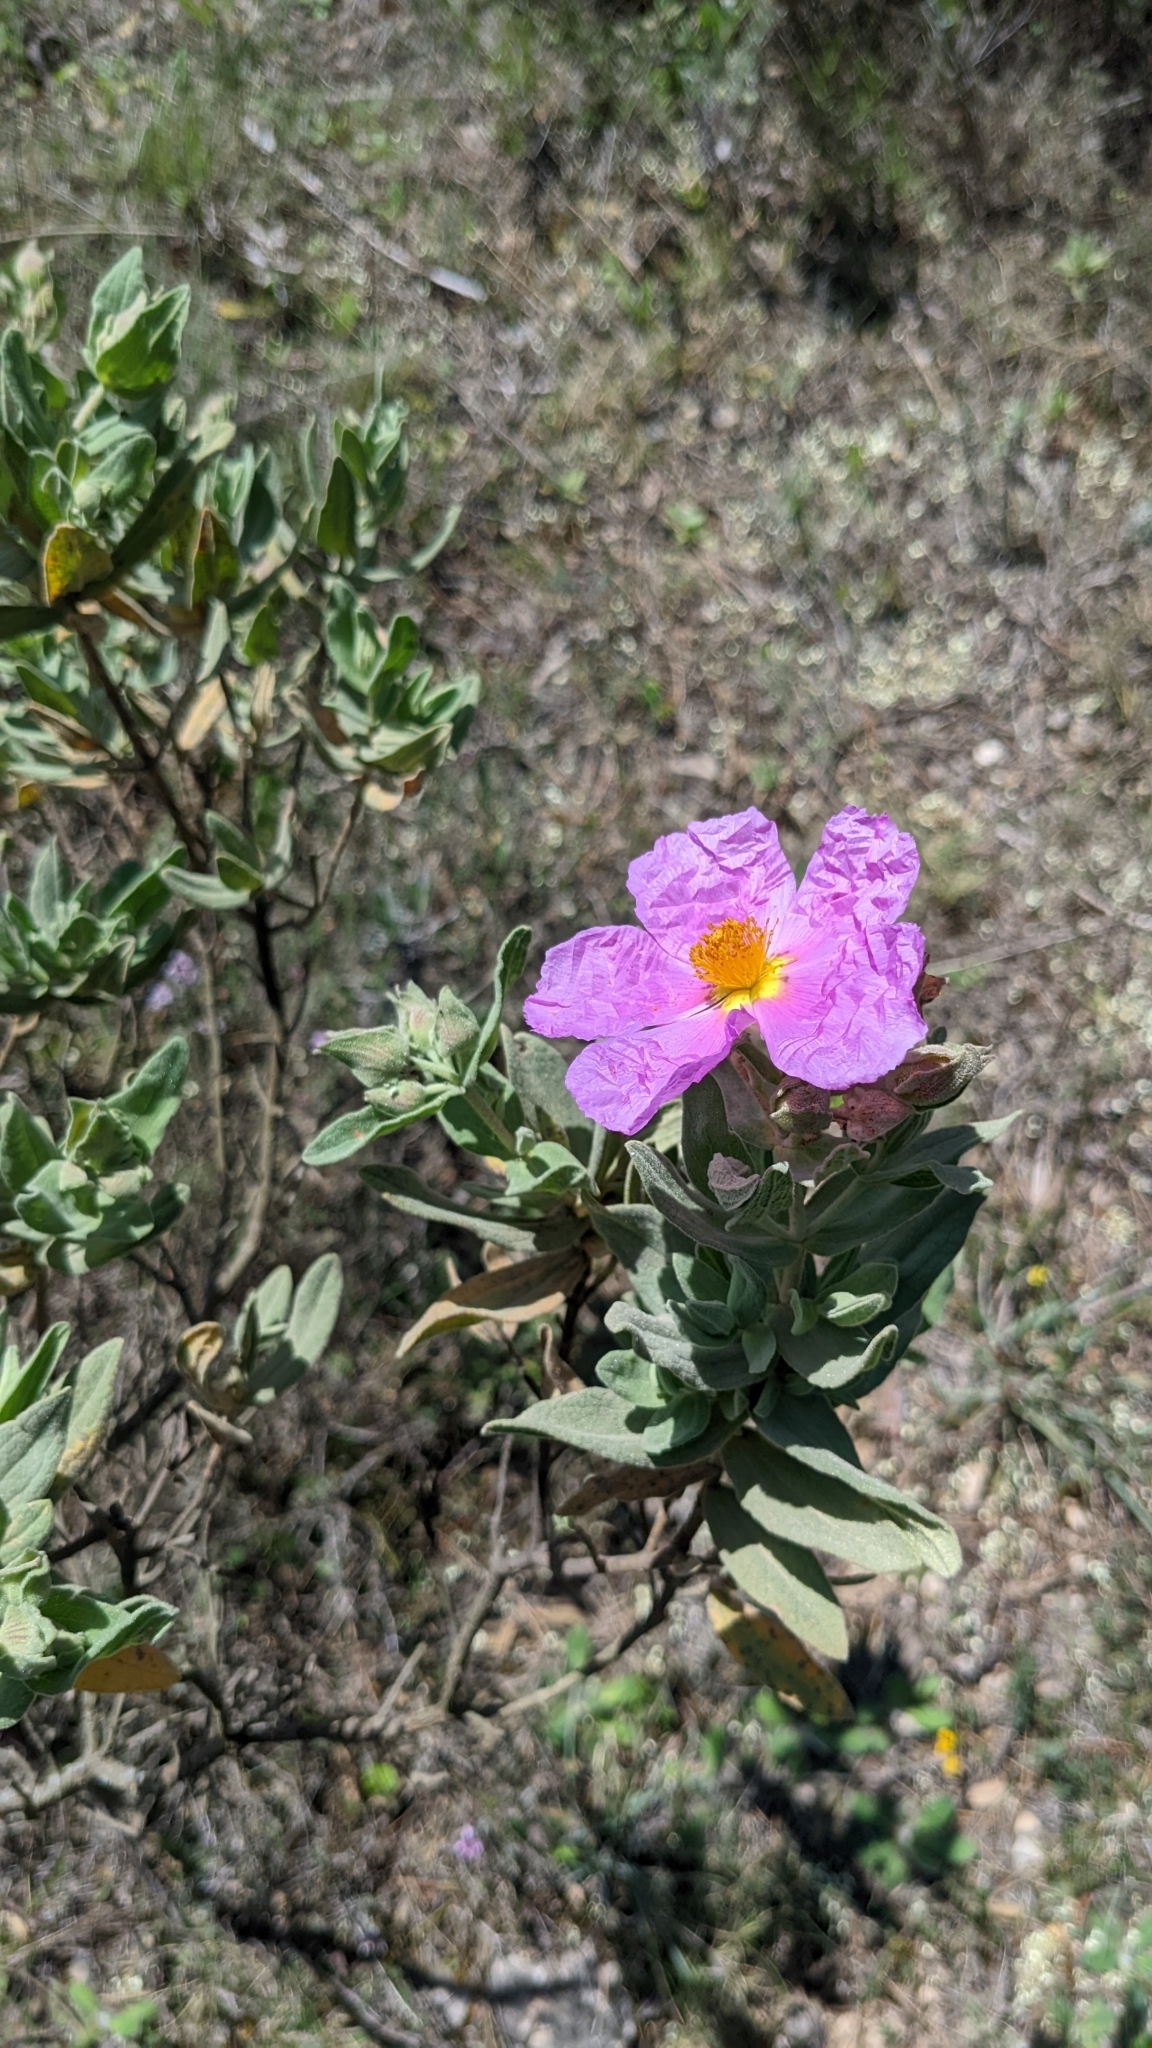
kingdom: Plantae
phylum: Tracheophyta
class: Magnoliopsida
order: Malvales
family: Cistaceae
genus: Cistus
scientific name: Cistus albidus
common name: White-leaf rock-rose
